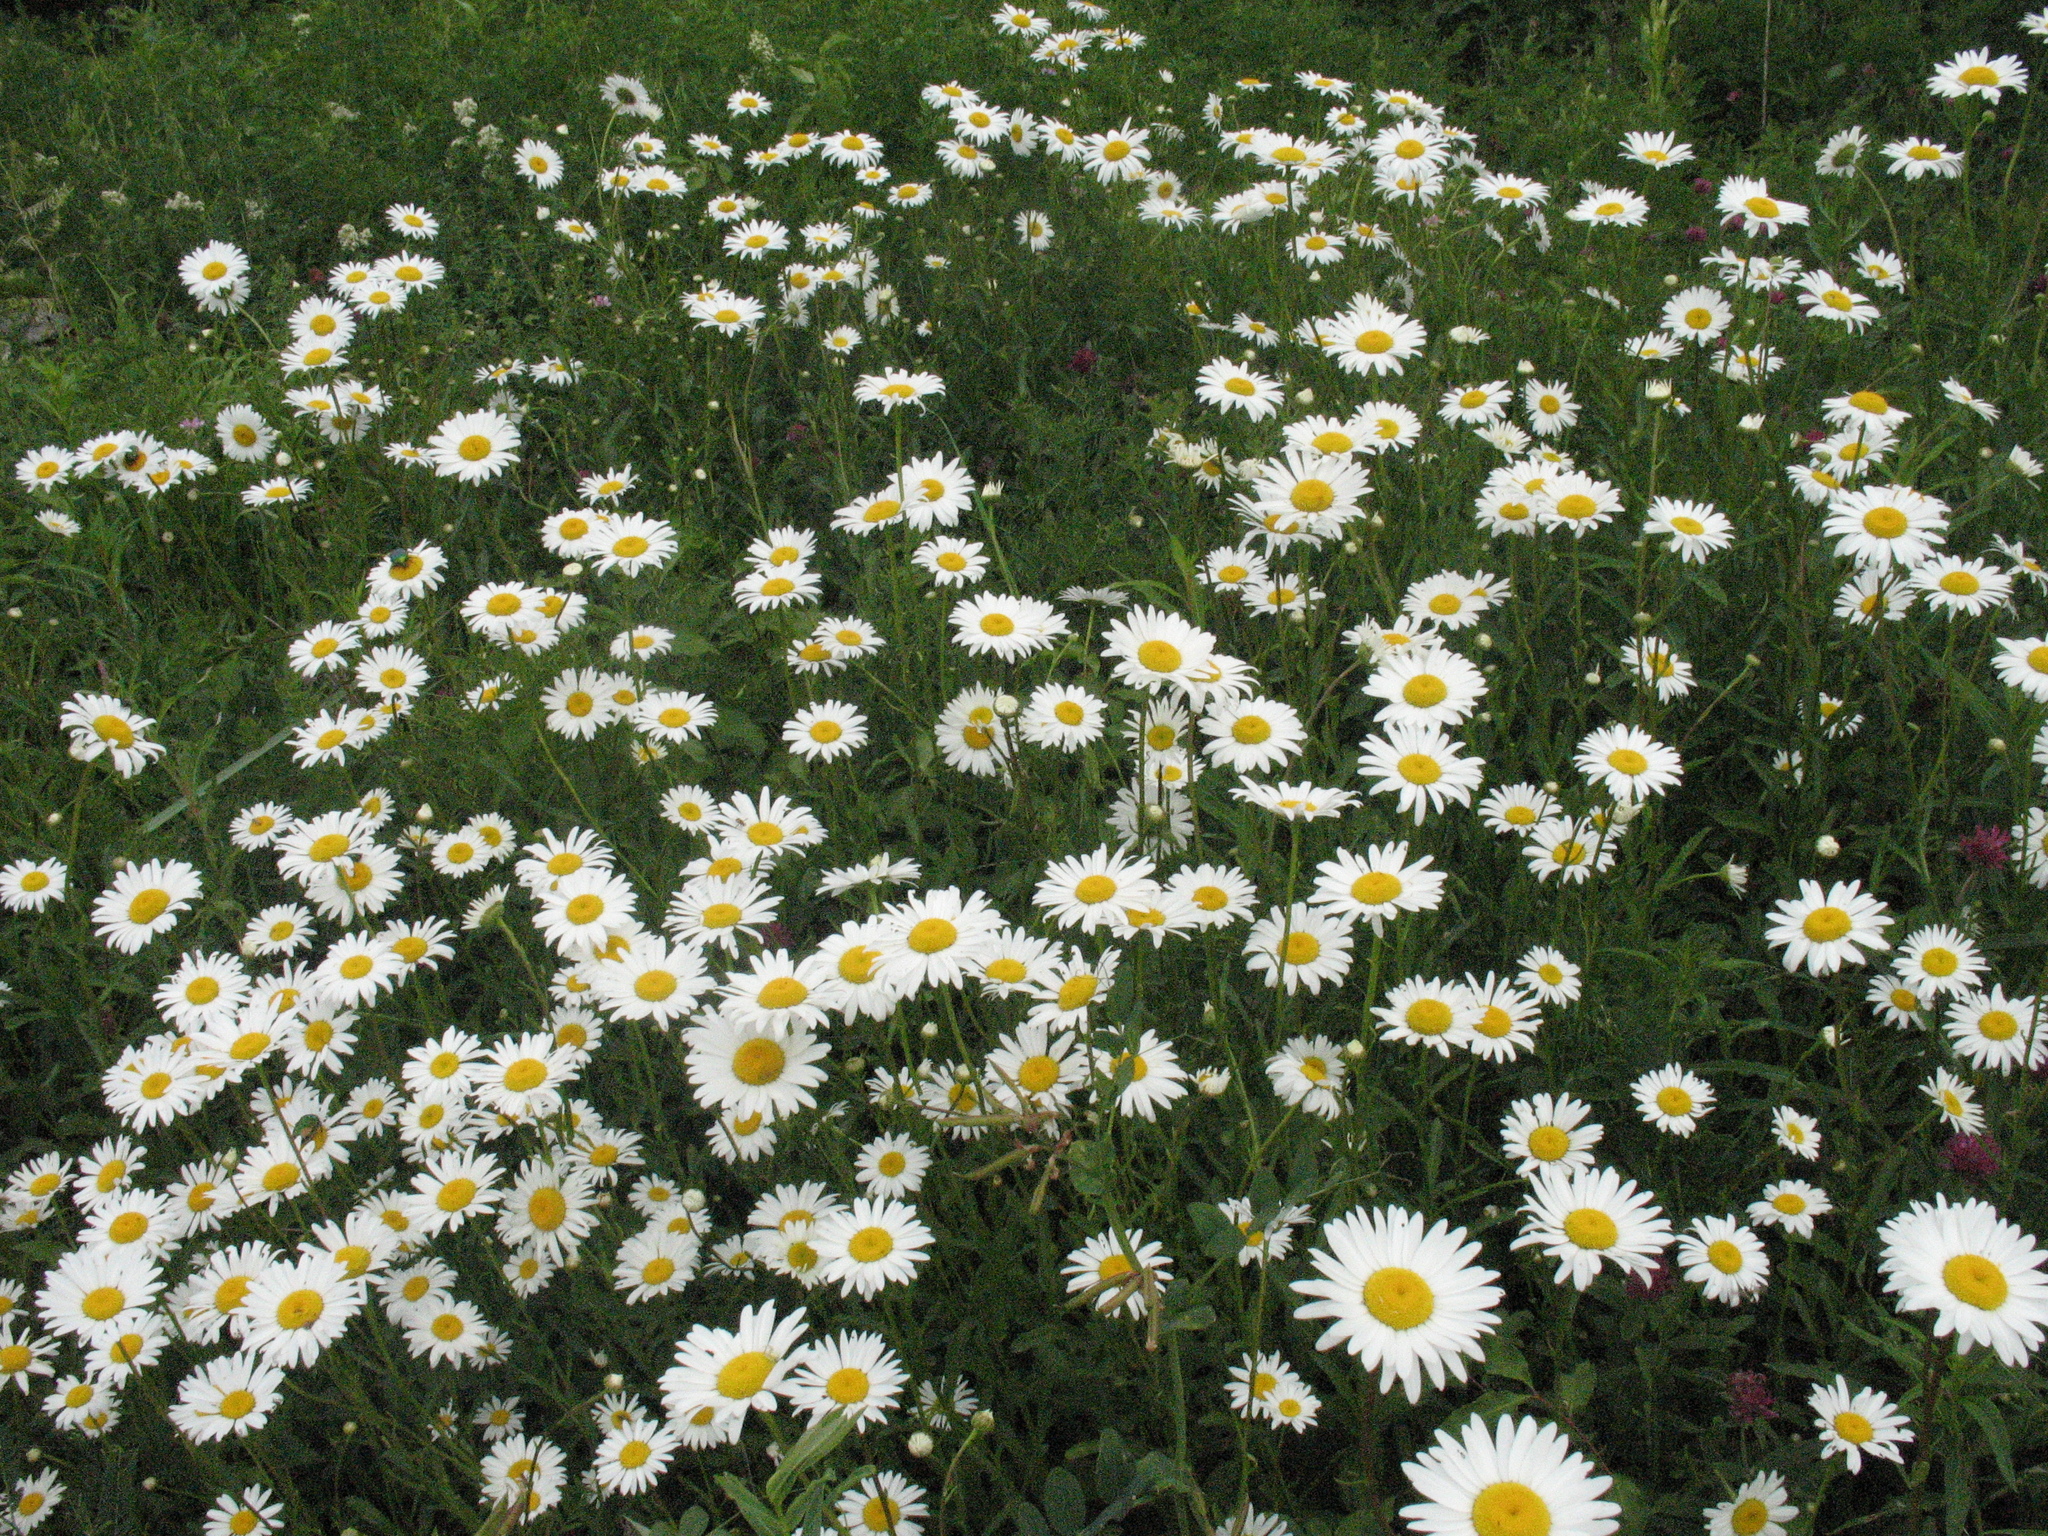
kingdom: Plantae
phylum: Tracheophyta
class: Magnoliopsida
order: Asterales
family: Asteraceae
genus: Leucanthemum
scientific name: Leucanthemum vulgare
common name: Oxeye daisy
